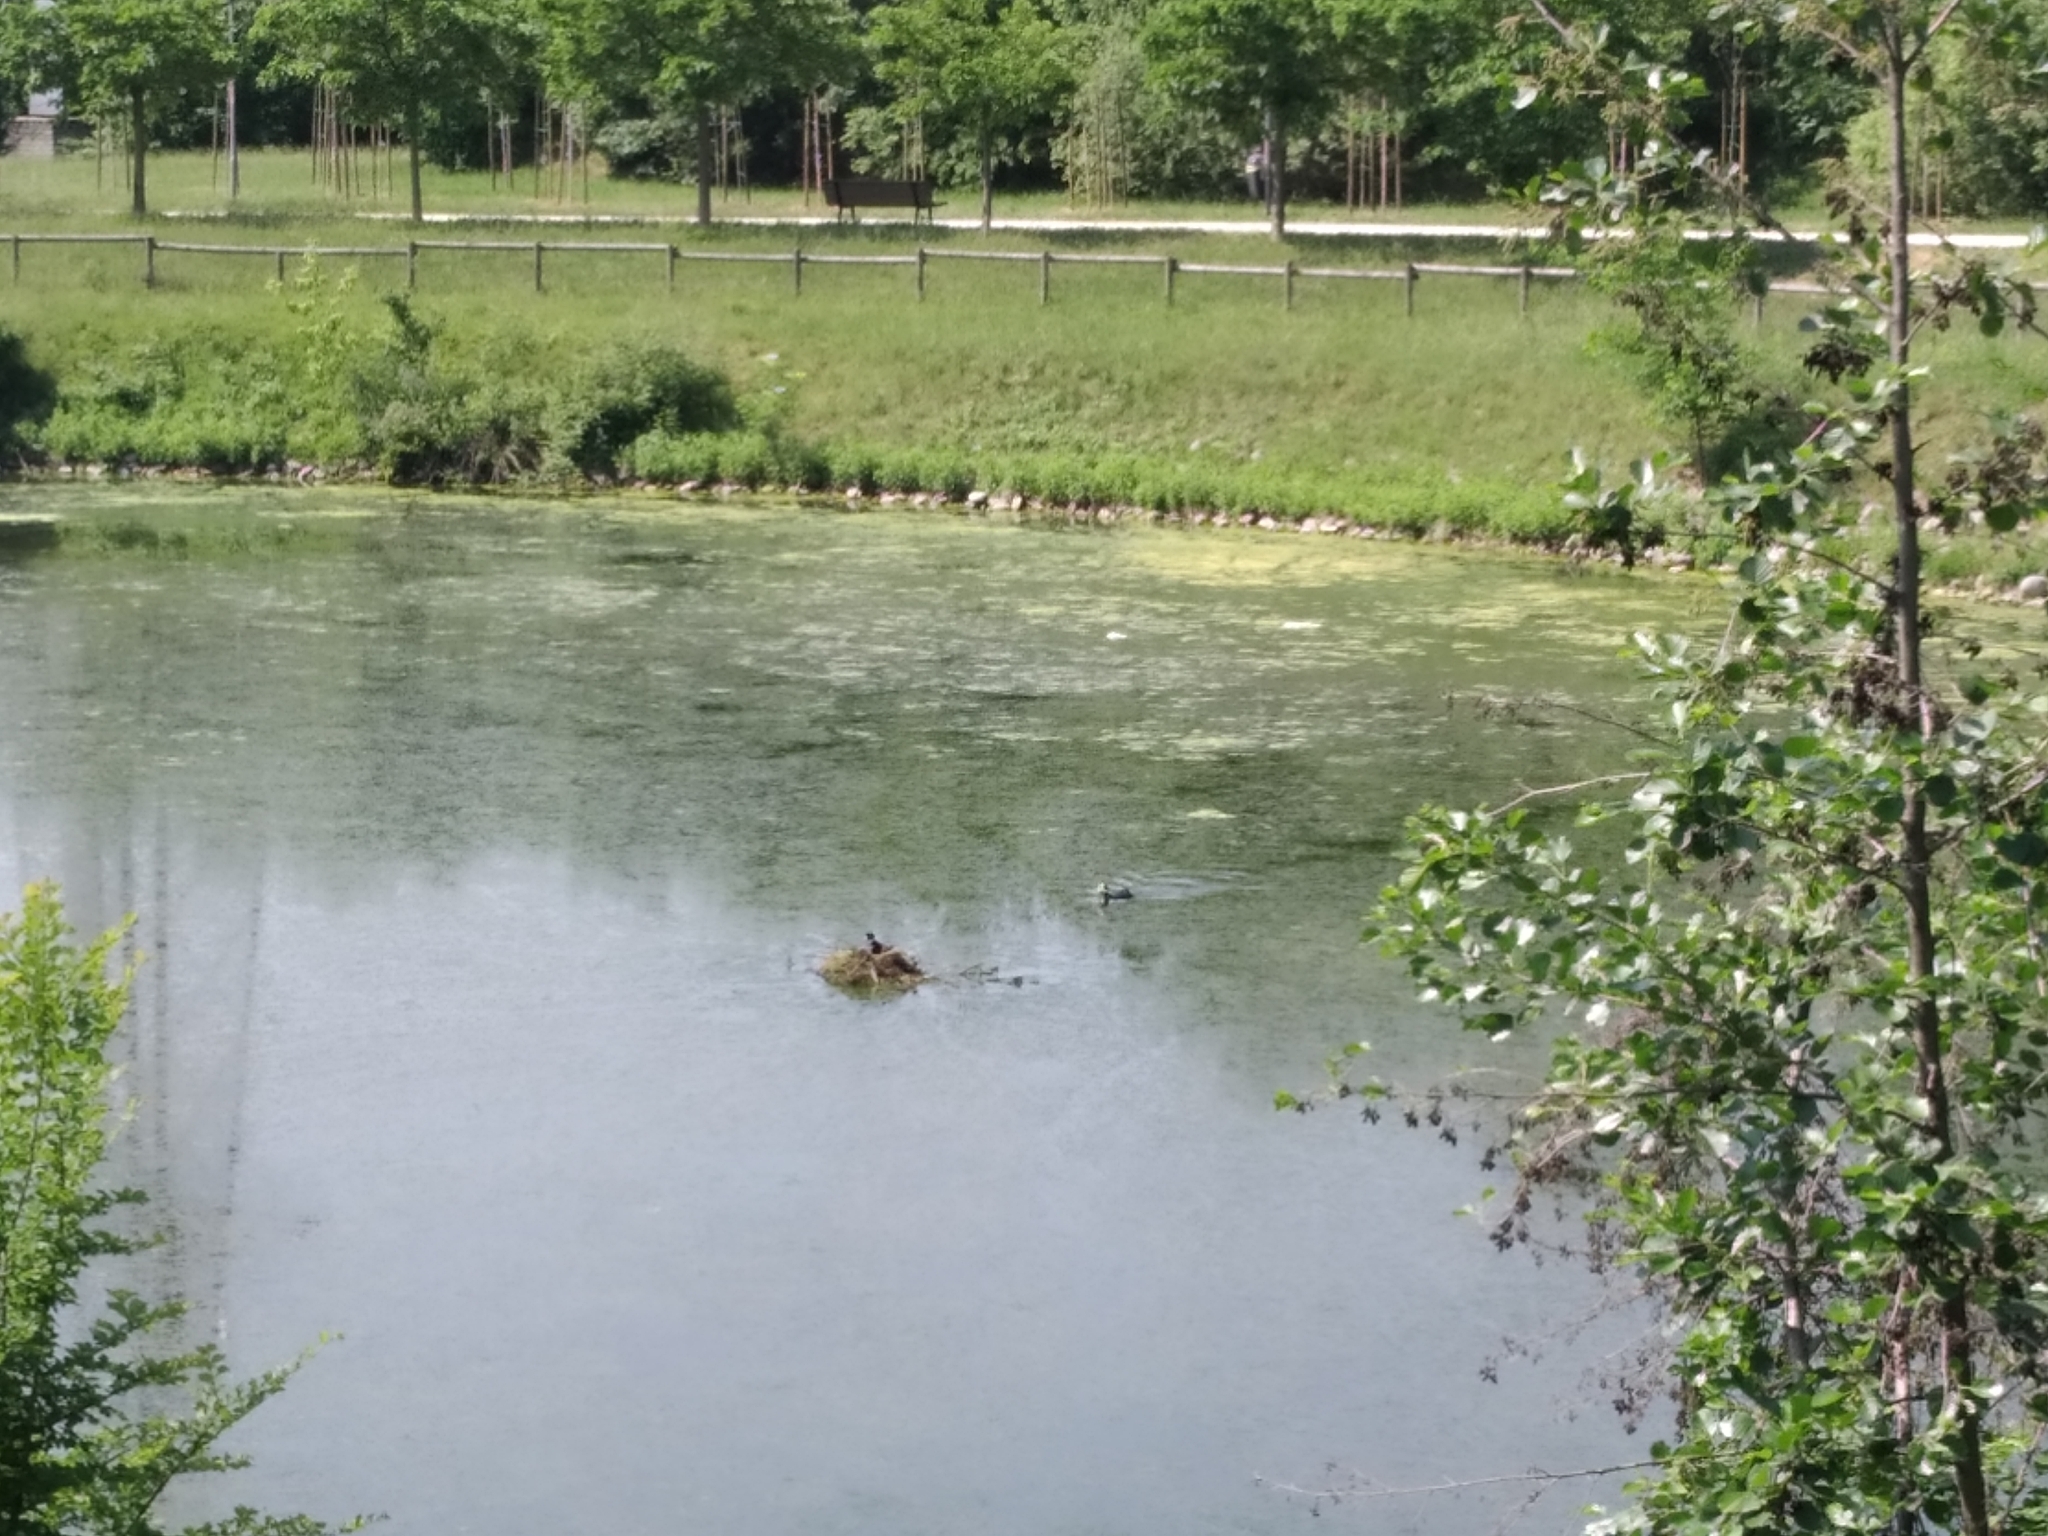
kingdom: Animalia
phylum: Chordata
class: Aves
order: Gruiformes
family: Rallidae
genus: Fulica
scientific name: Fulica atra
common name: Eurasian coot
